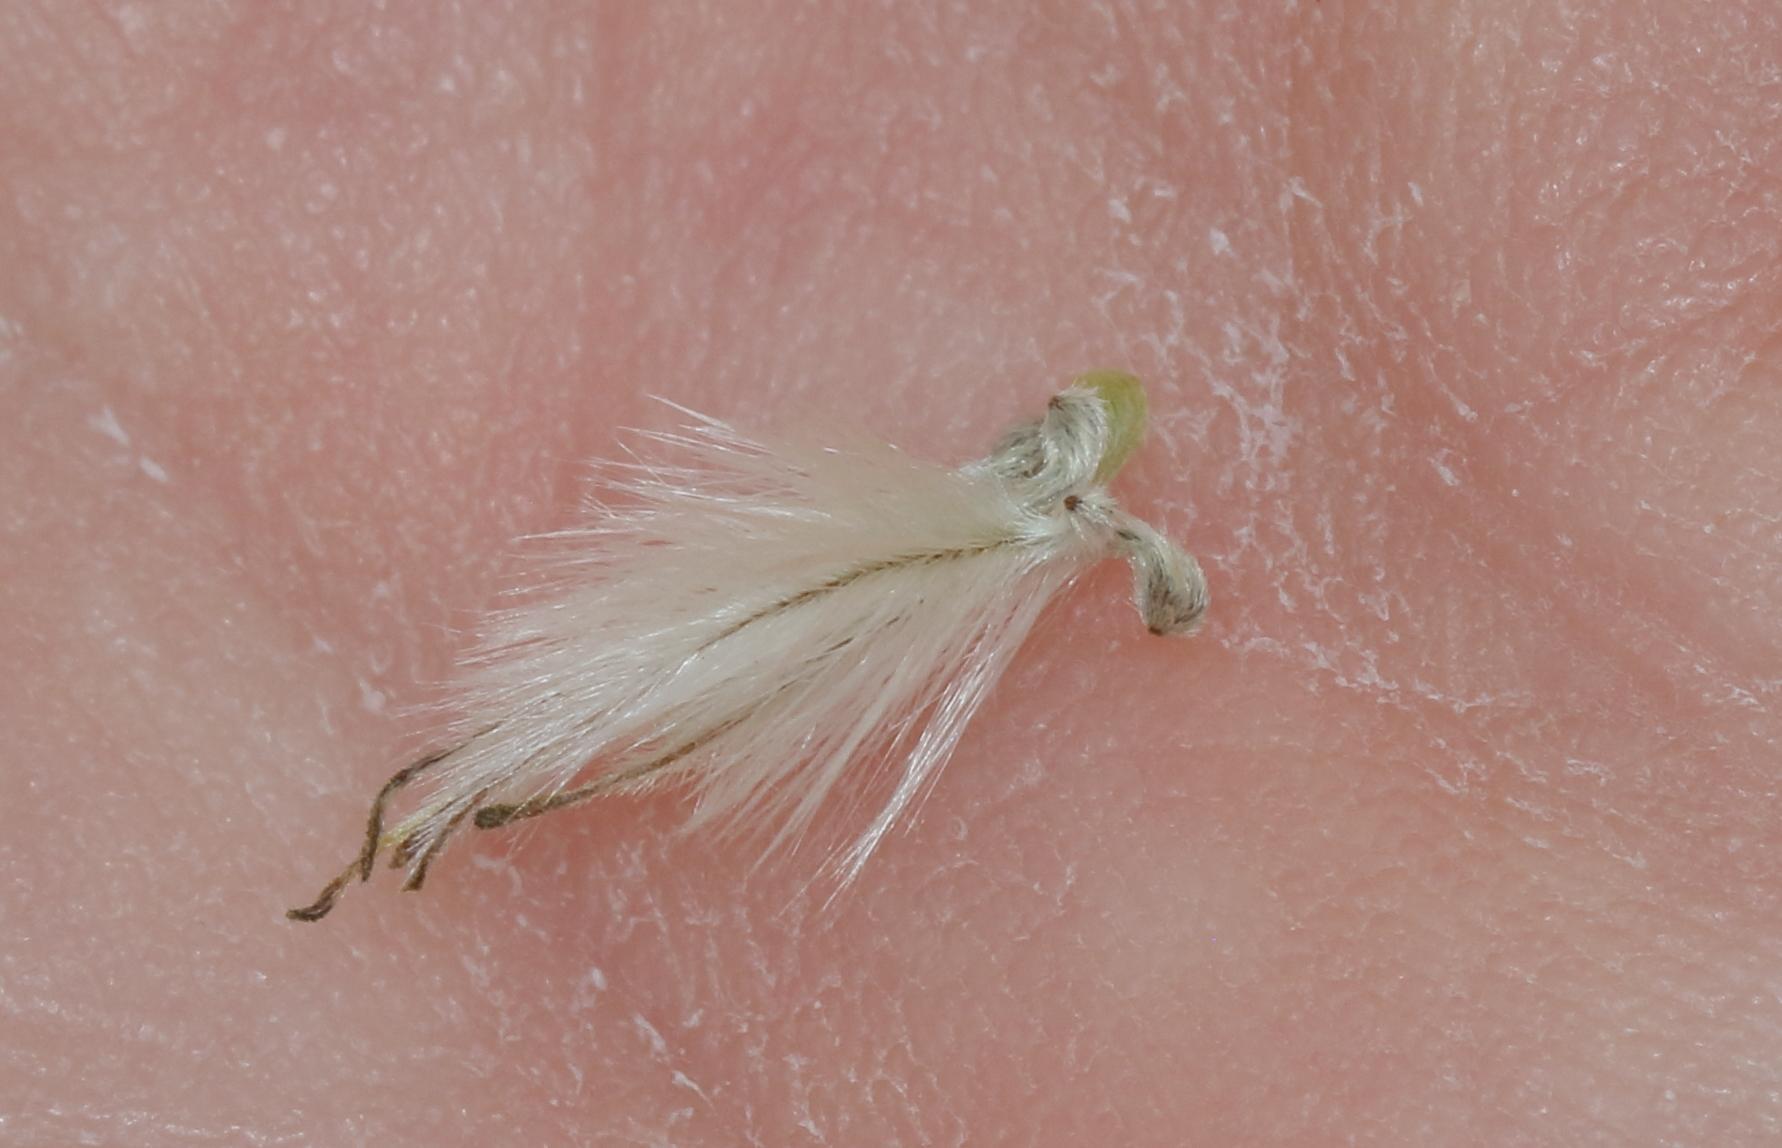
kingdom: Plantae
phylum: Tracheophyta
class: Magnoliopsida
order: Ranunculales
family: Ranunculaceae
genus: Clematis
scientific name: Clematis brachiata
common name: Traveler's-joy
